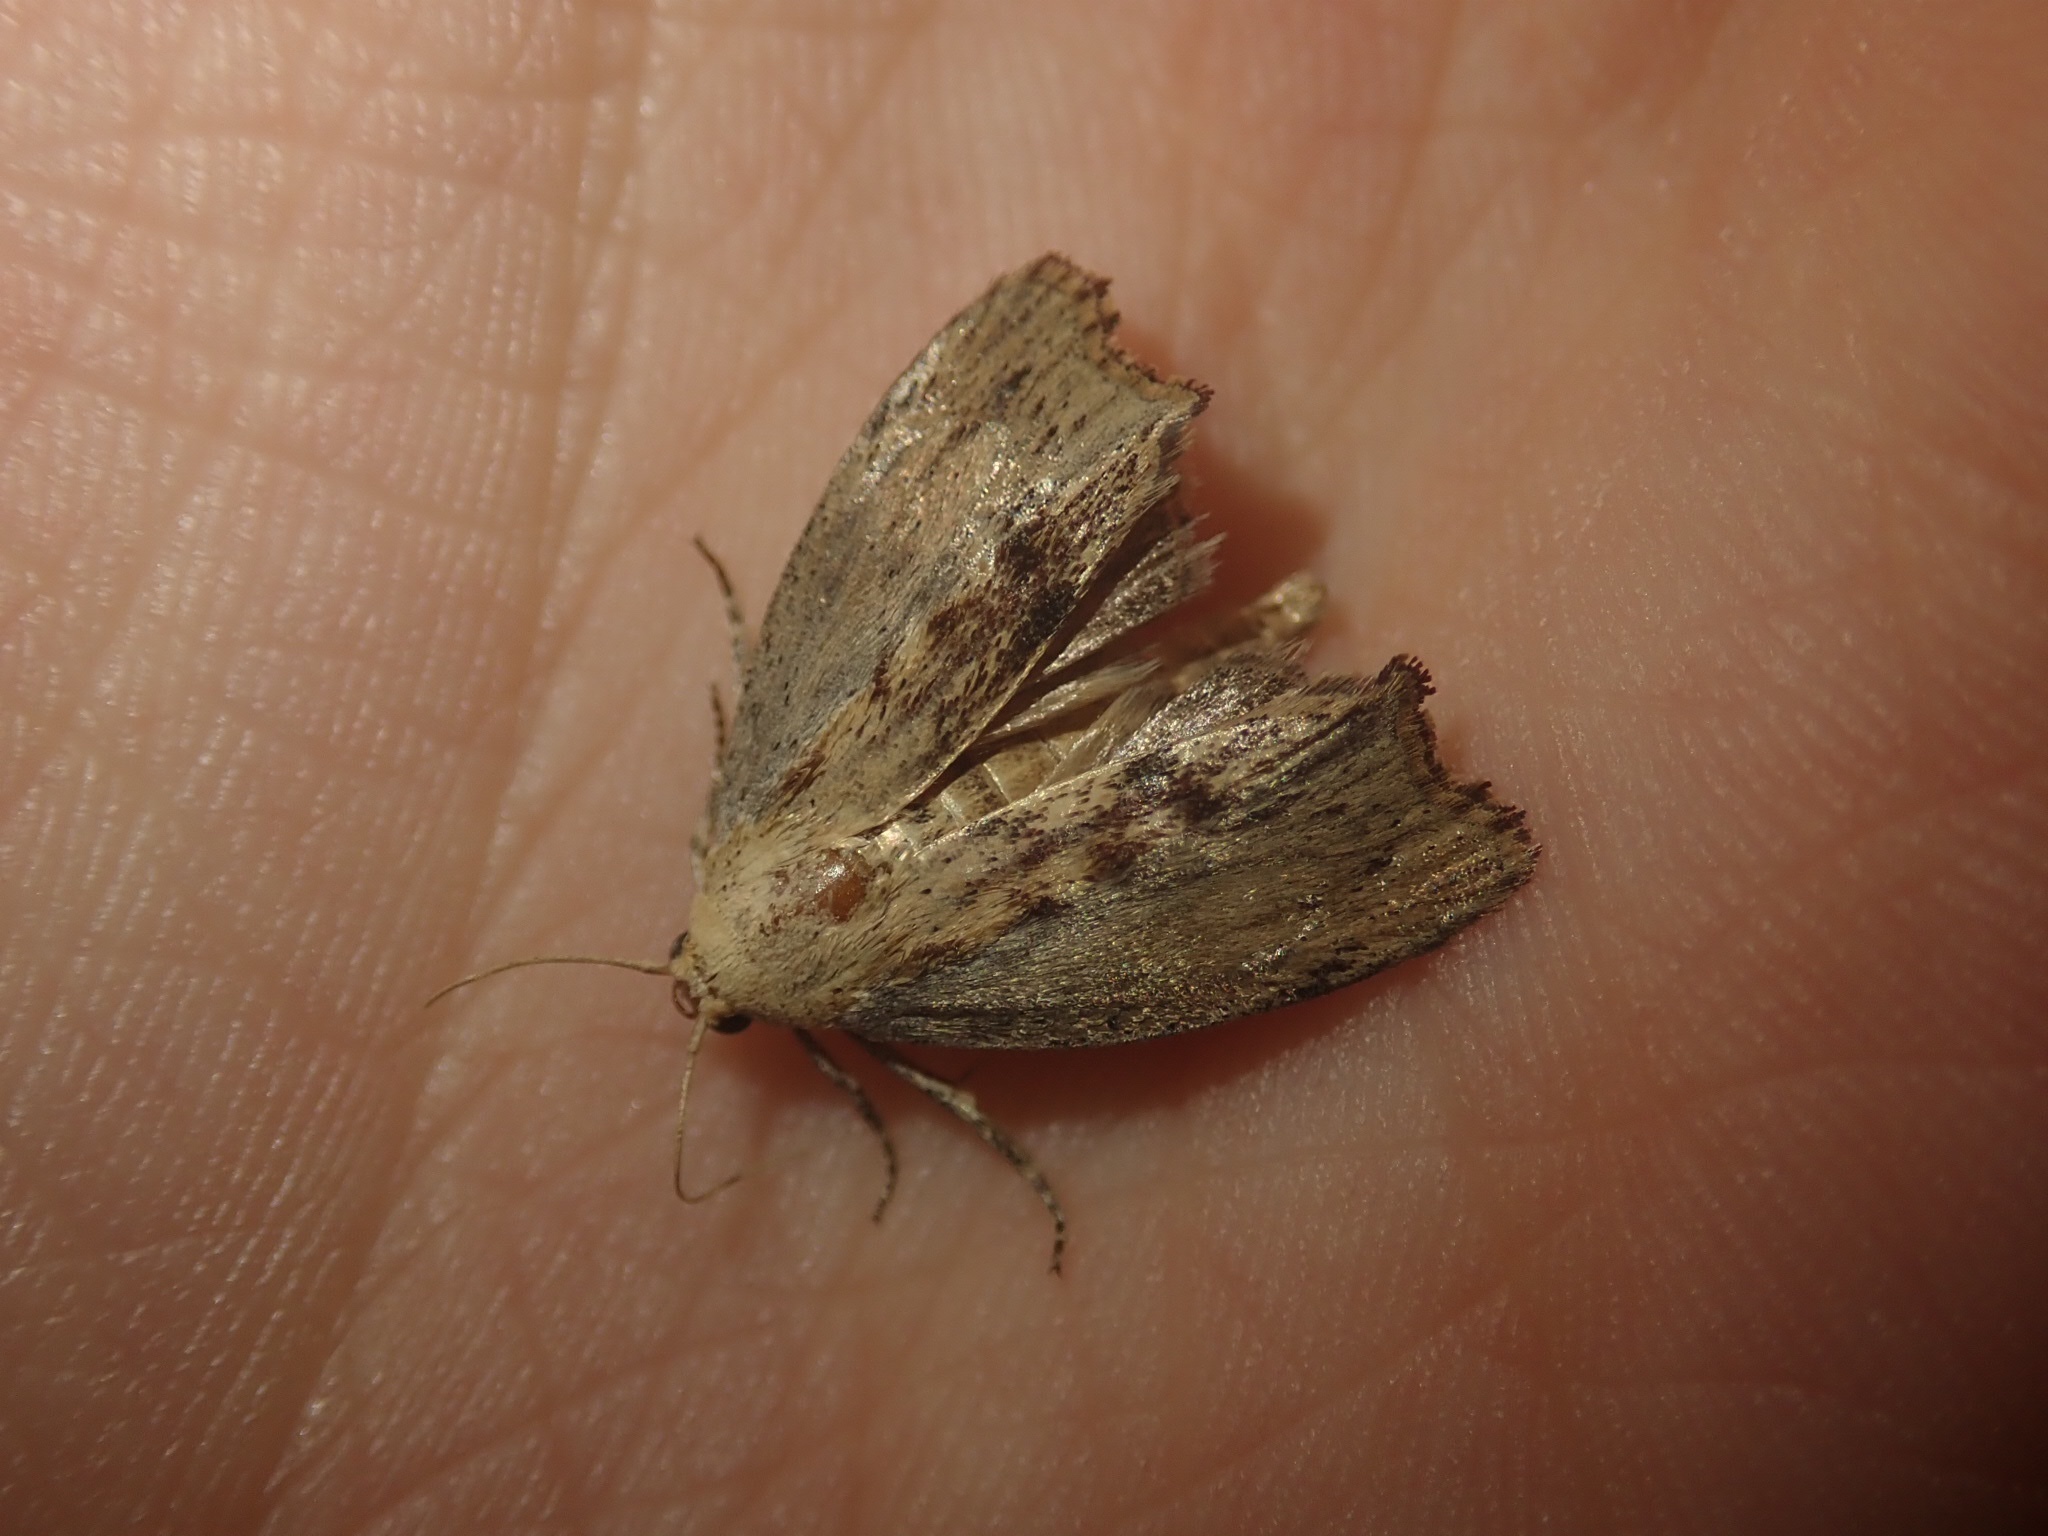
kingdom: Animalia
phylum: Arthropoda
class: Insecta
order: Lepidoptera
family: Pyralidae
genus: Galleria
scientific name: Galleria mellonella
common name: Greater wax moth
